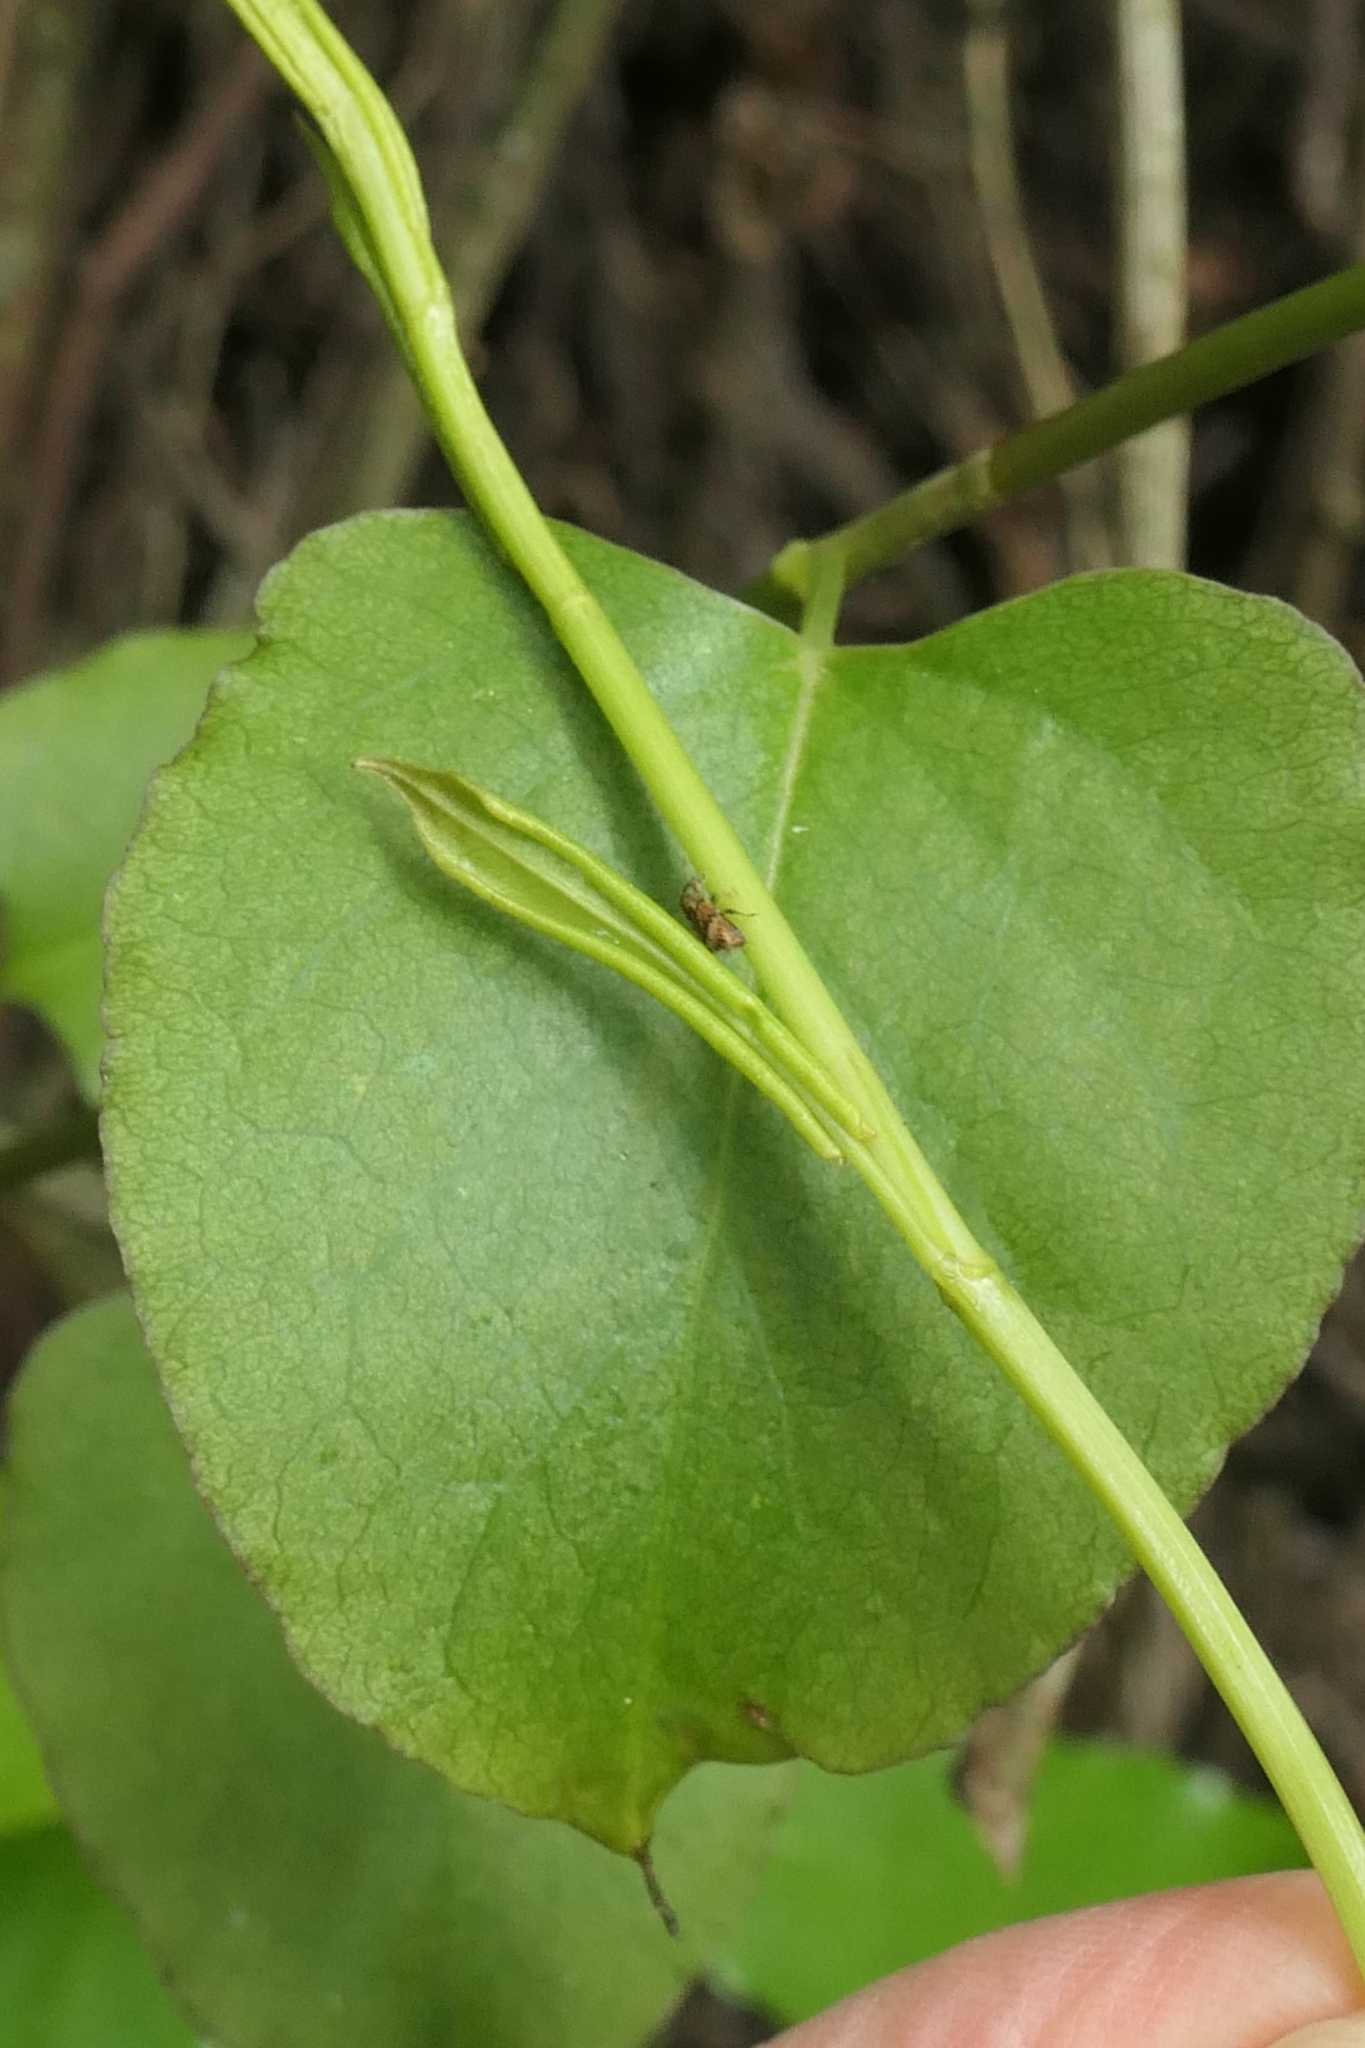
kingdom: Animalia
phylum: Arthropoda
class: Insecta
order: Coleoptera
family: Curculionidae
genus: Peristoreus
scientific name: Peristoreus
